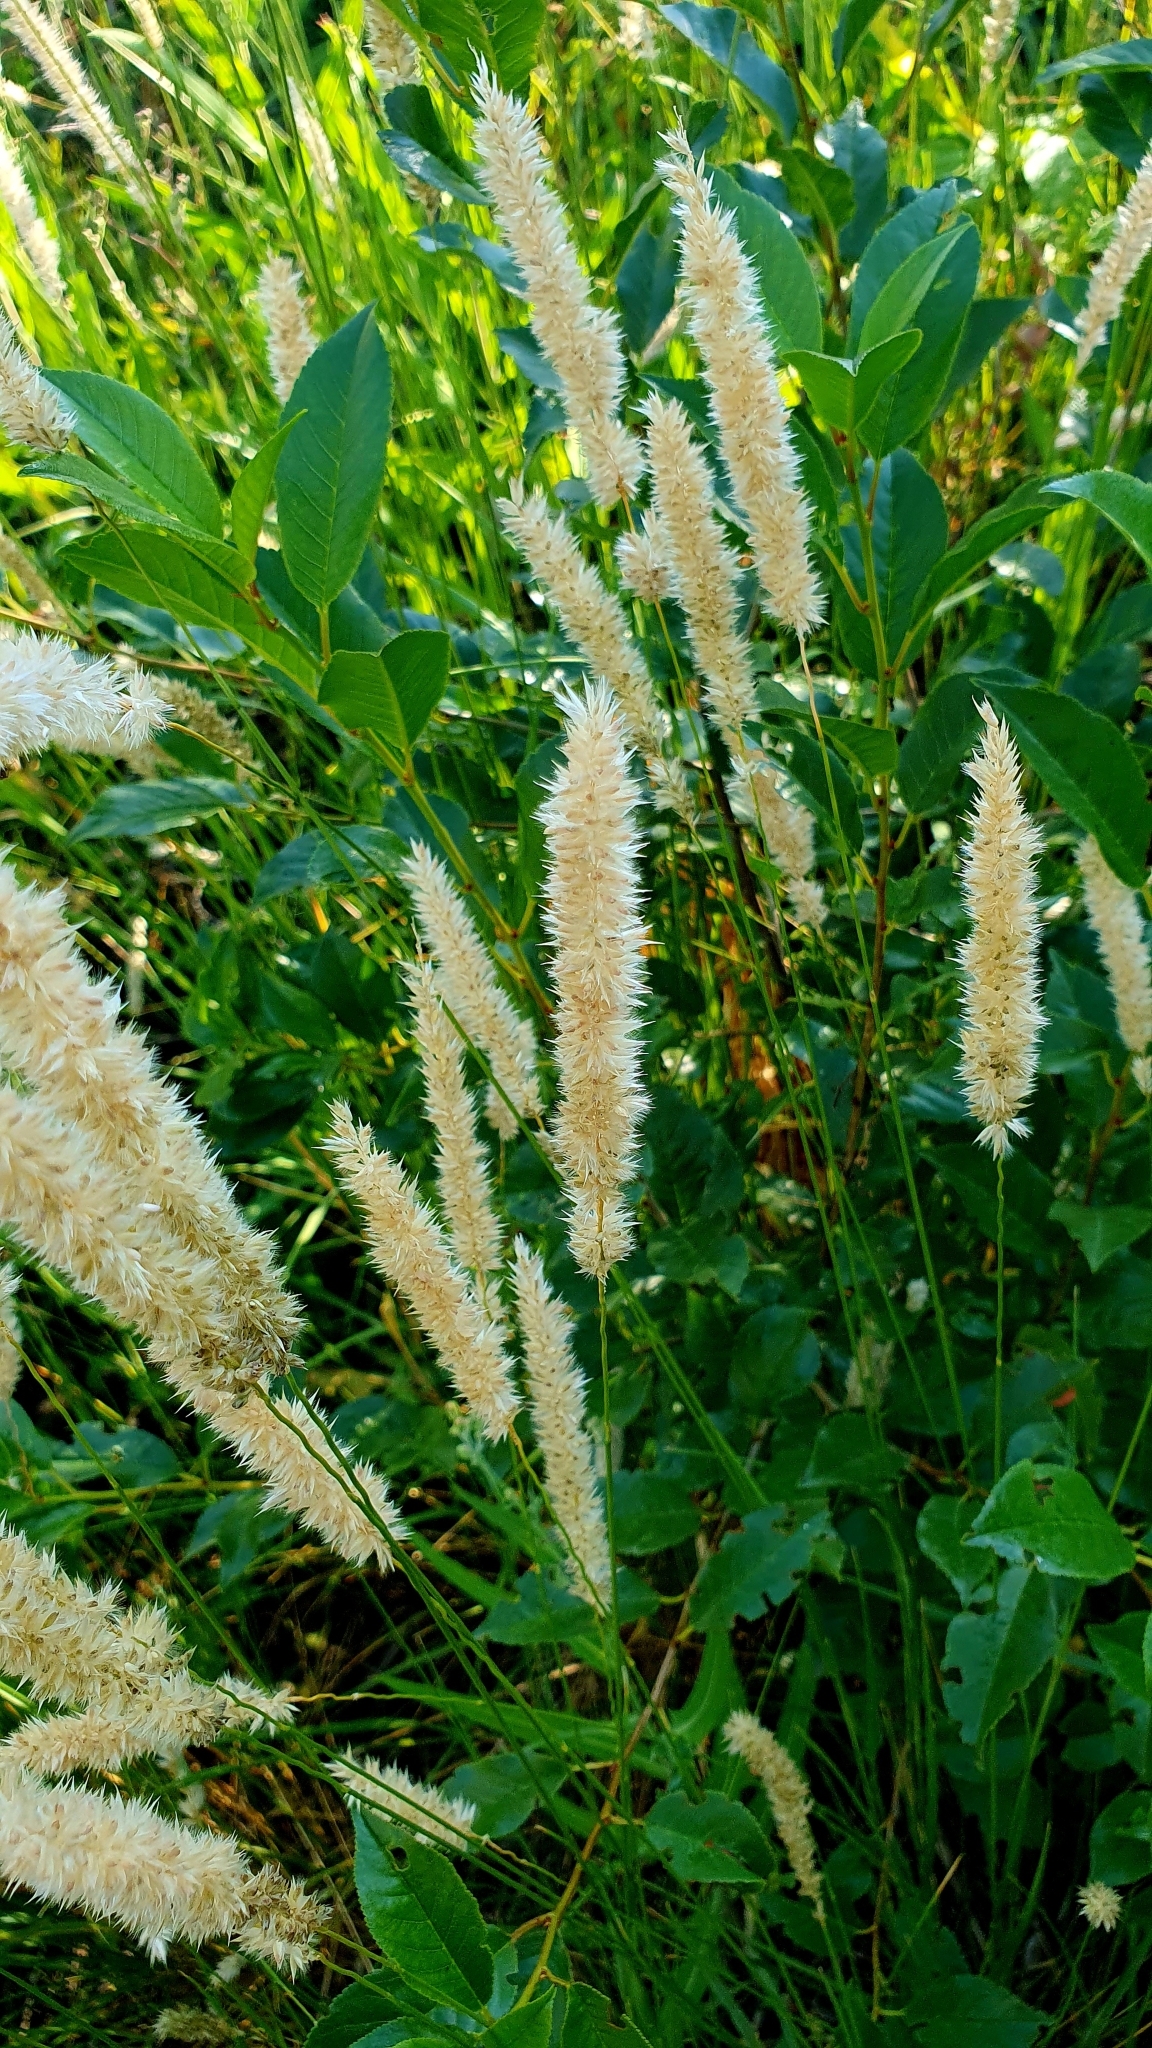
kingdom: Plantae
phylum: Tracheophyta
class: Liliopsida
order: Poales
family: Poaceae
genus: Melica
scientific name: Melica transsilvanica
